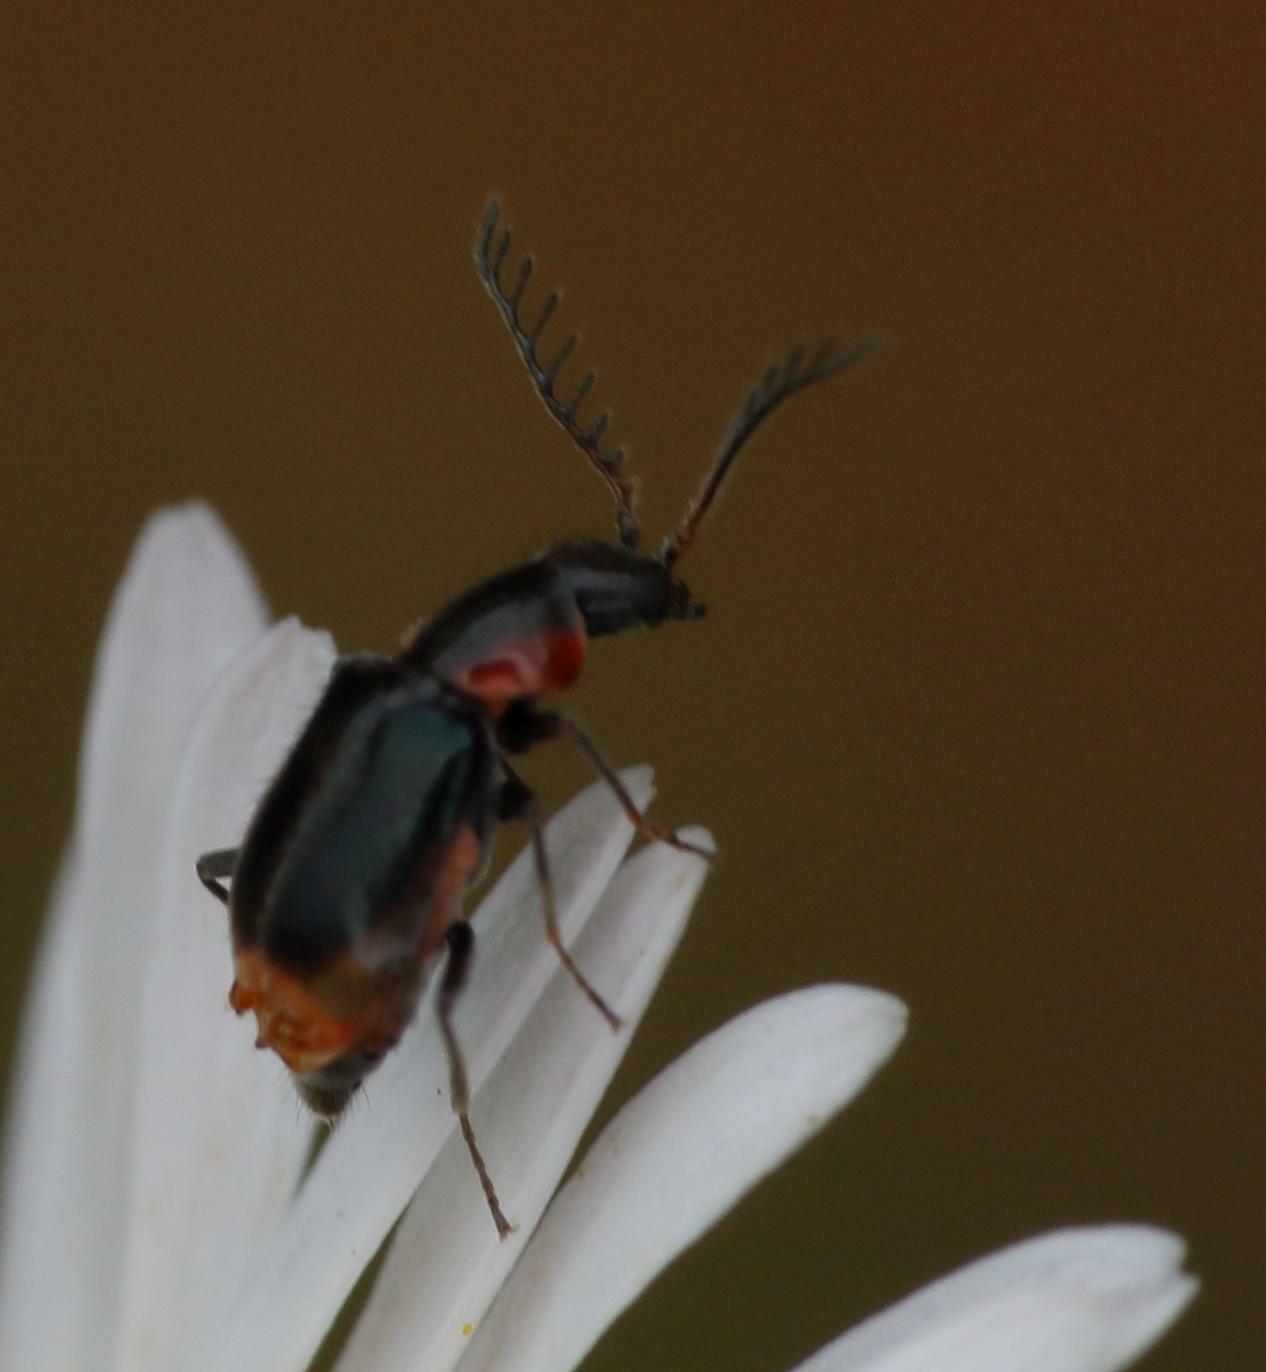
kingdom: Animalia
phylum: Arthropoda
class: Insecta
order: Coleoptera
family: Malachiidae
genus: Nepachys
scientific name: Nepachys
